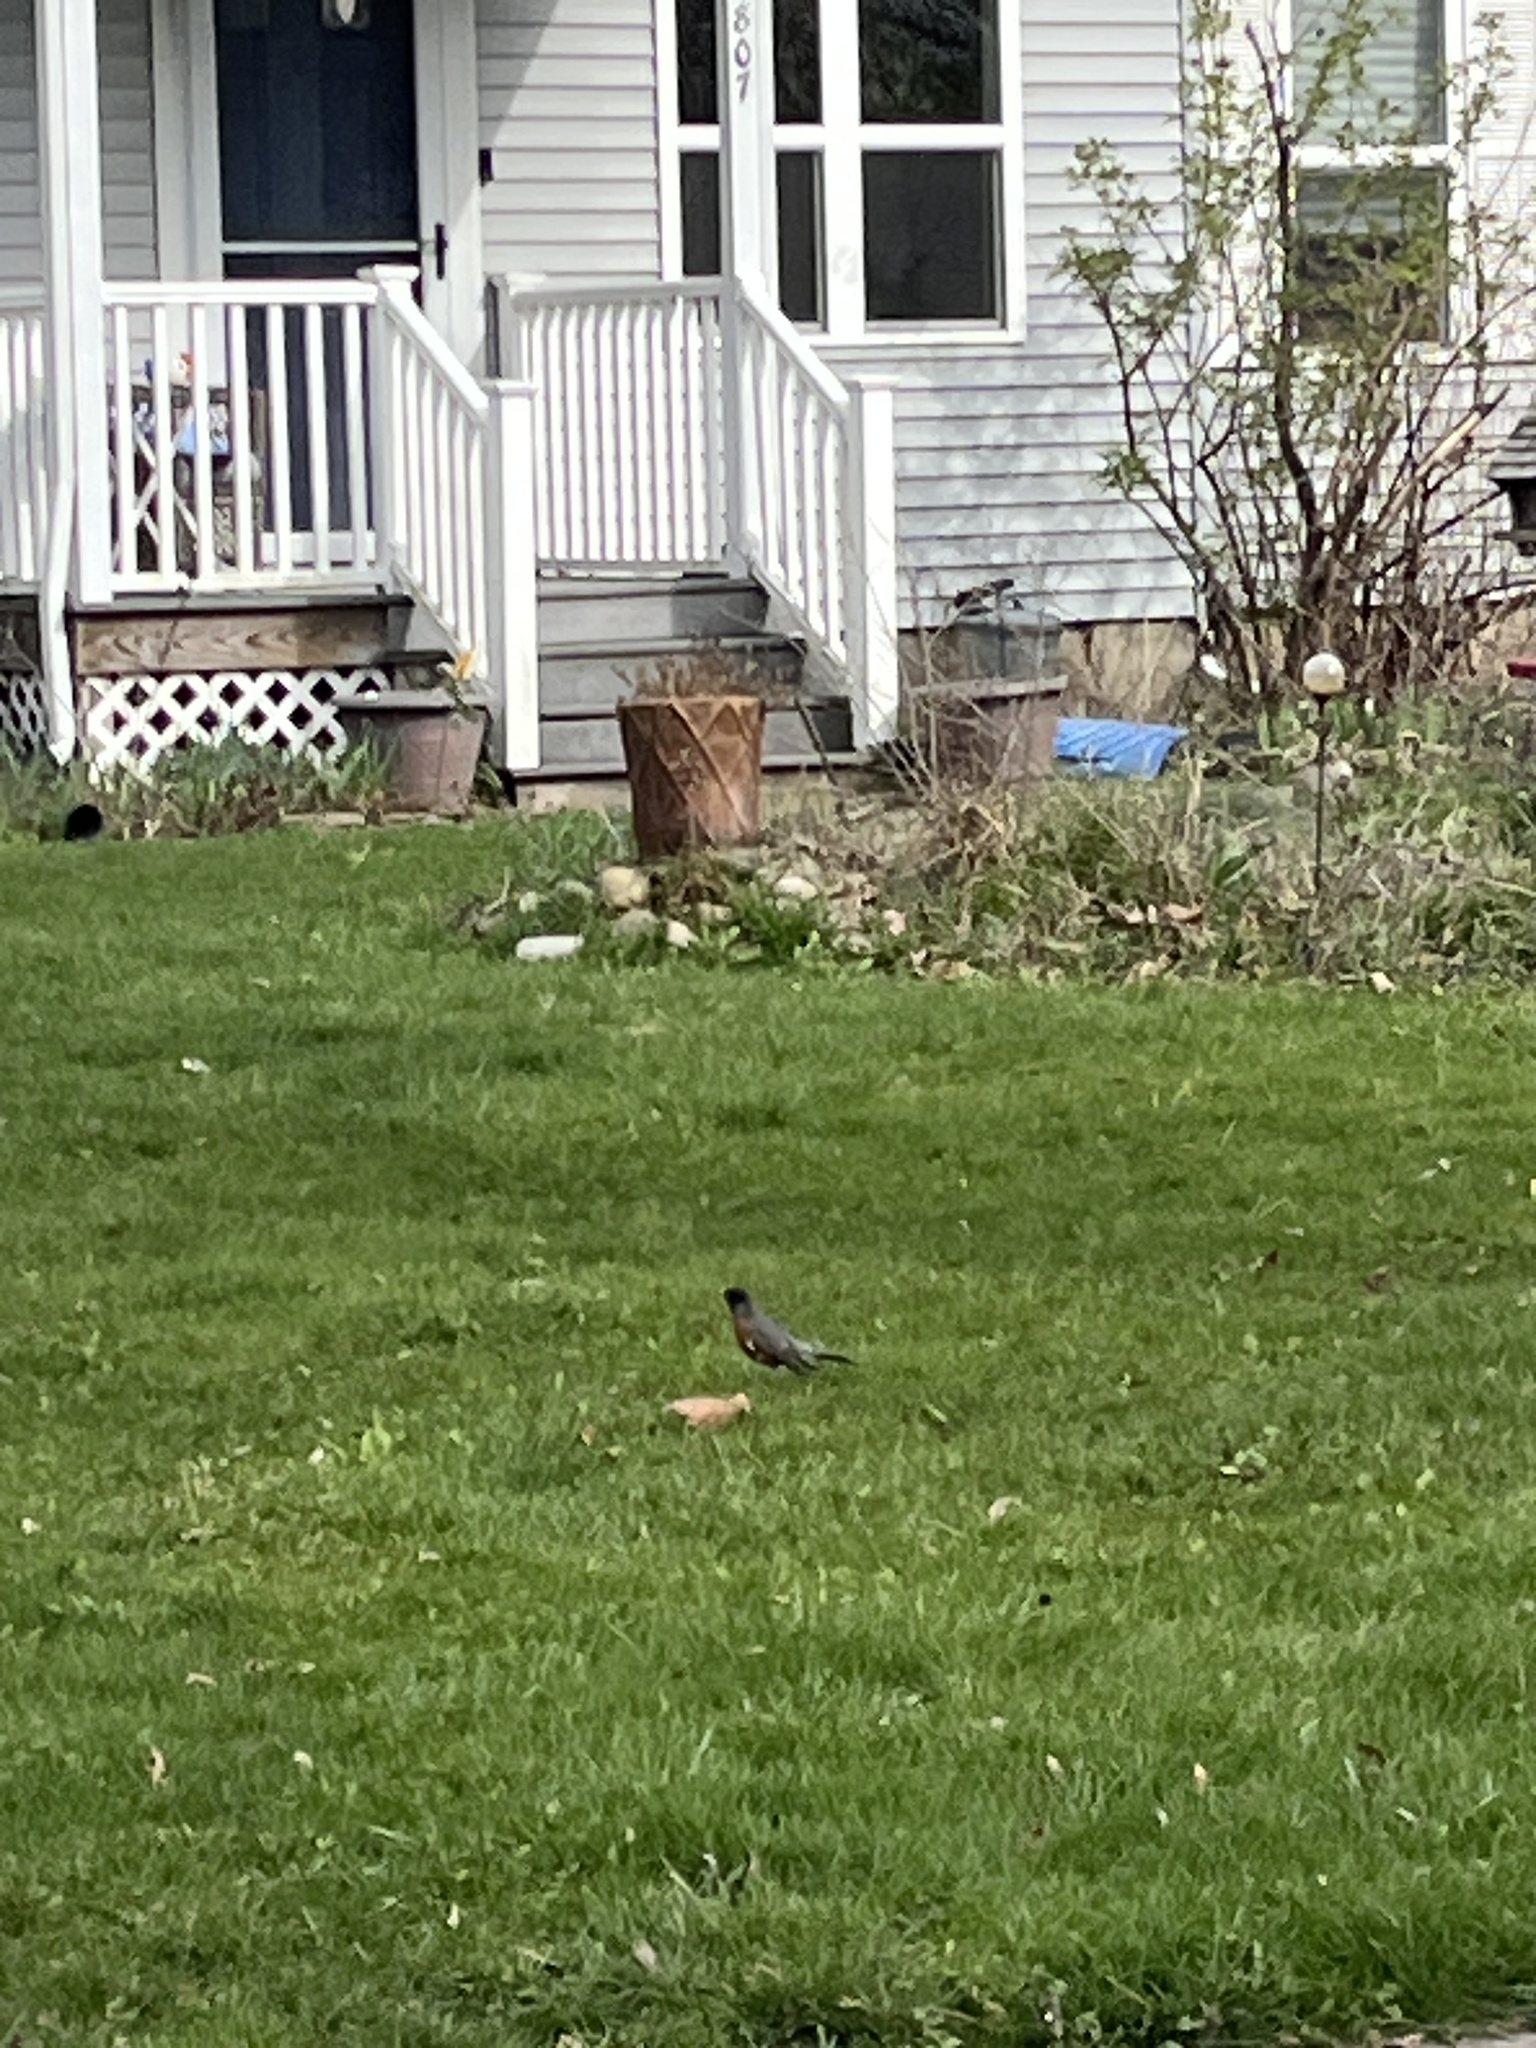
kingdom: Animalia
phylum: Chordata
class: Aves
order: Passeriformes
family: Turdidae
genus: Turdus
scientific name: Turdus migratorius
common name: American robin
